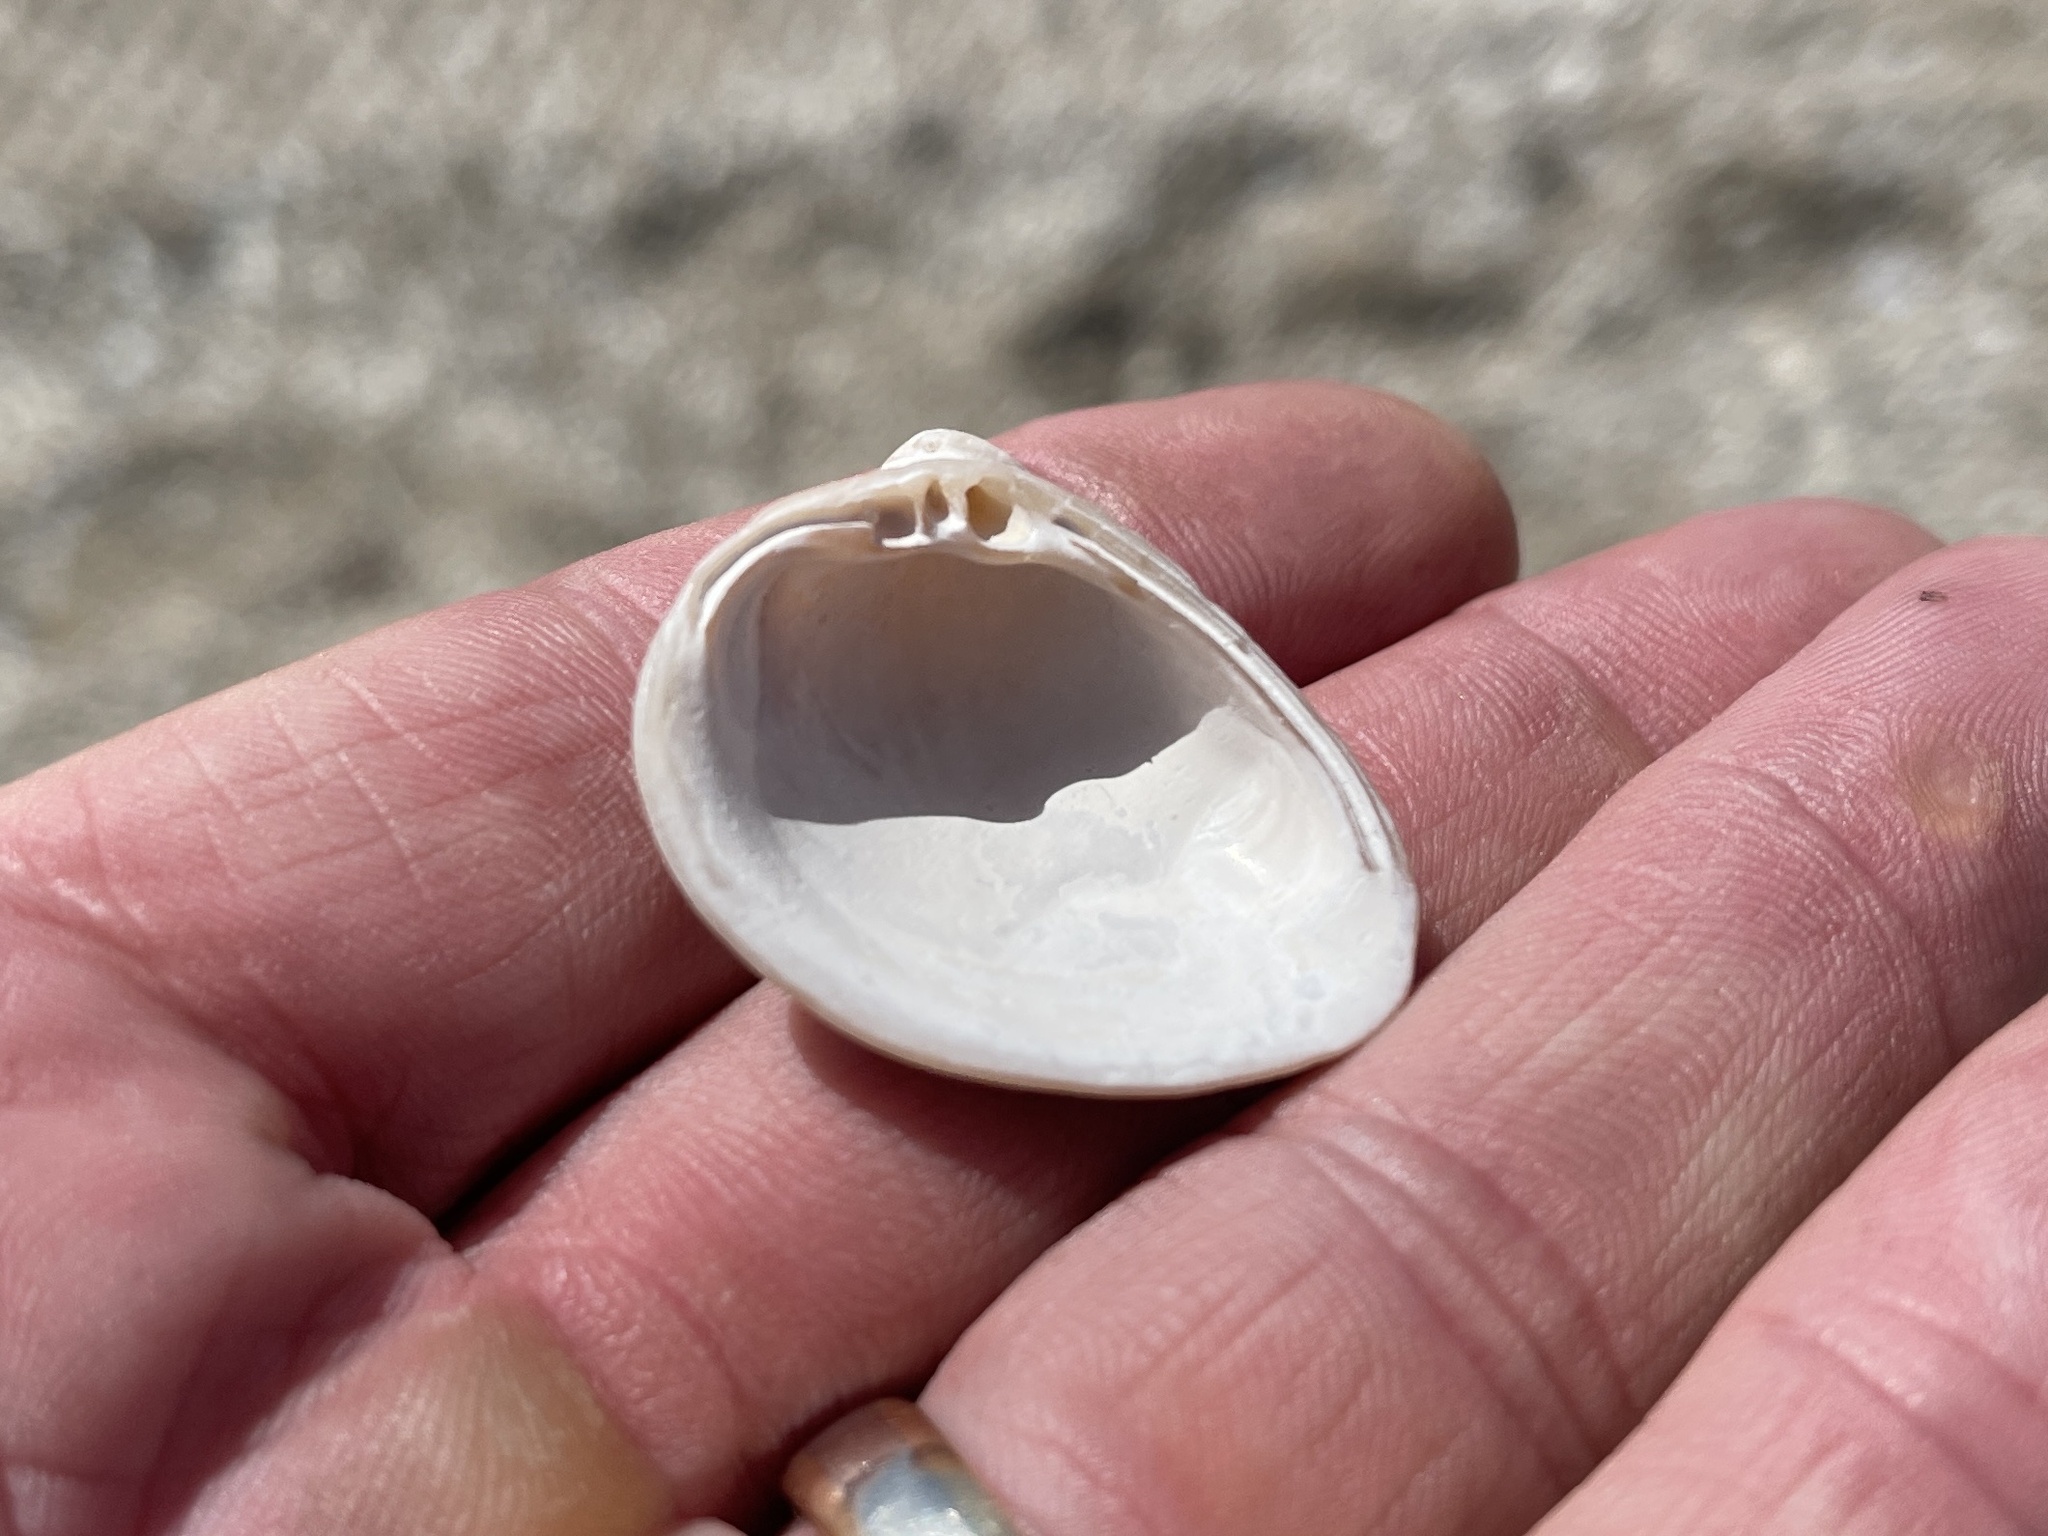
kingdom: Animalia
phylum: Mollusca
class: Bivalvia
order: Venerida
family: Mactridae
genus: Rangia
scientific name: Rangia cuneata
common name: Atlantic rangia
